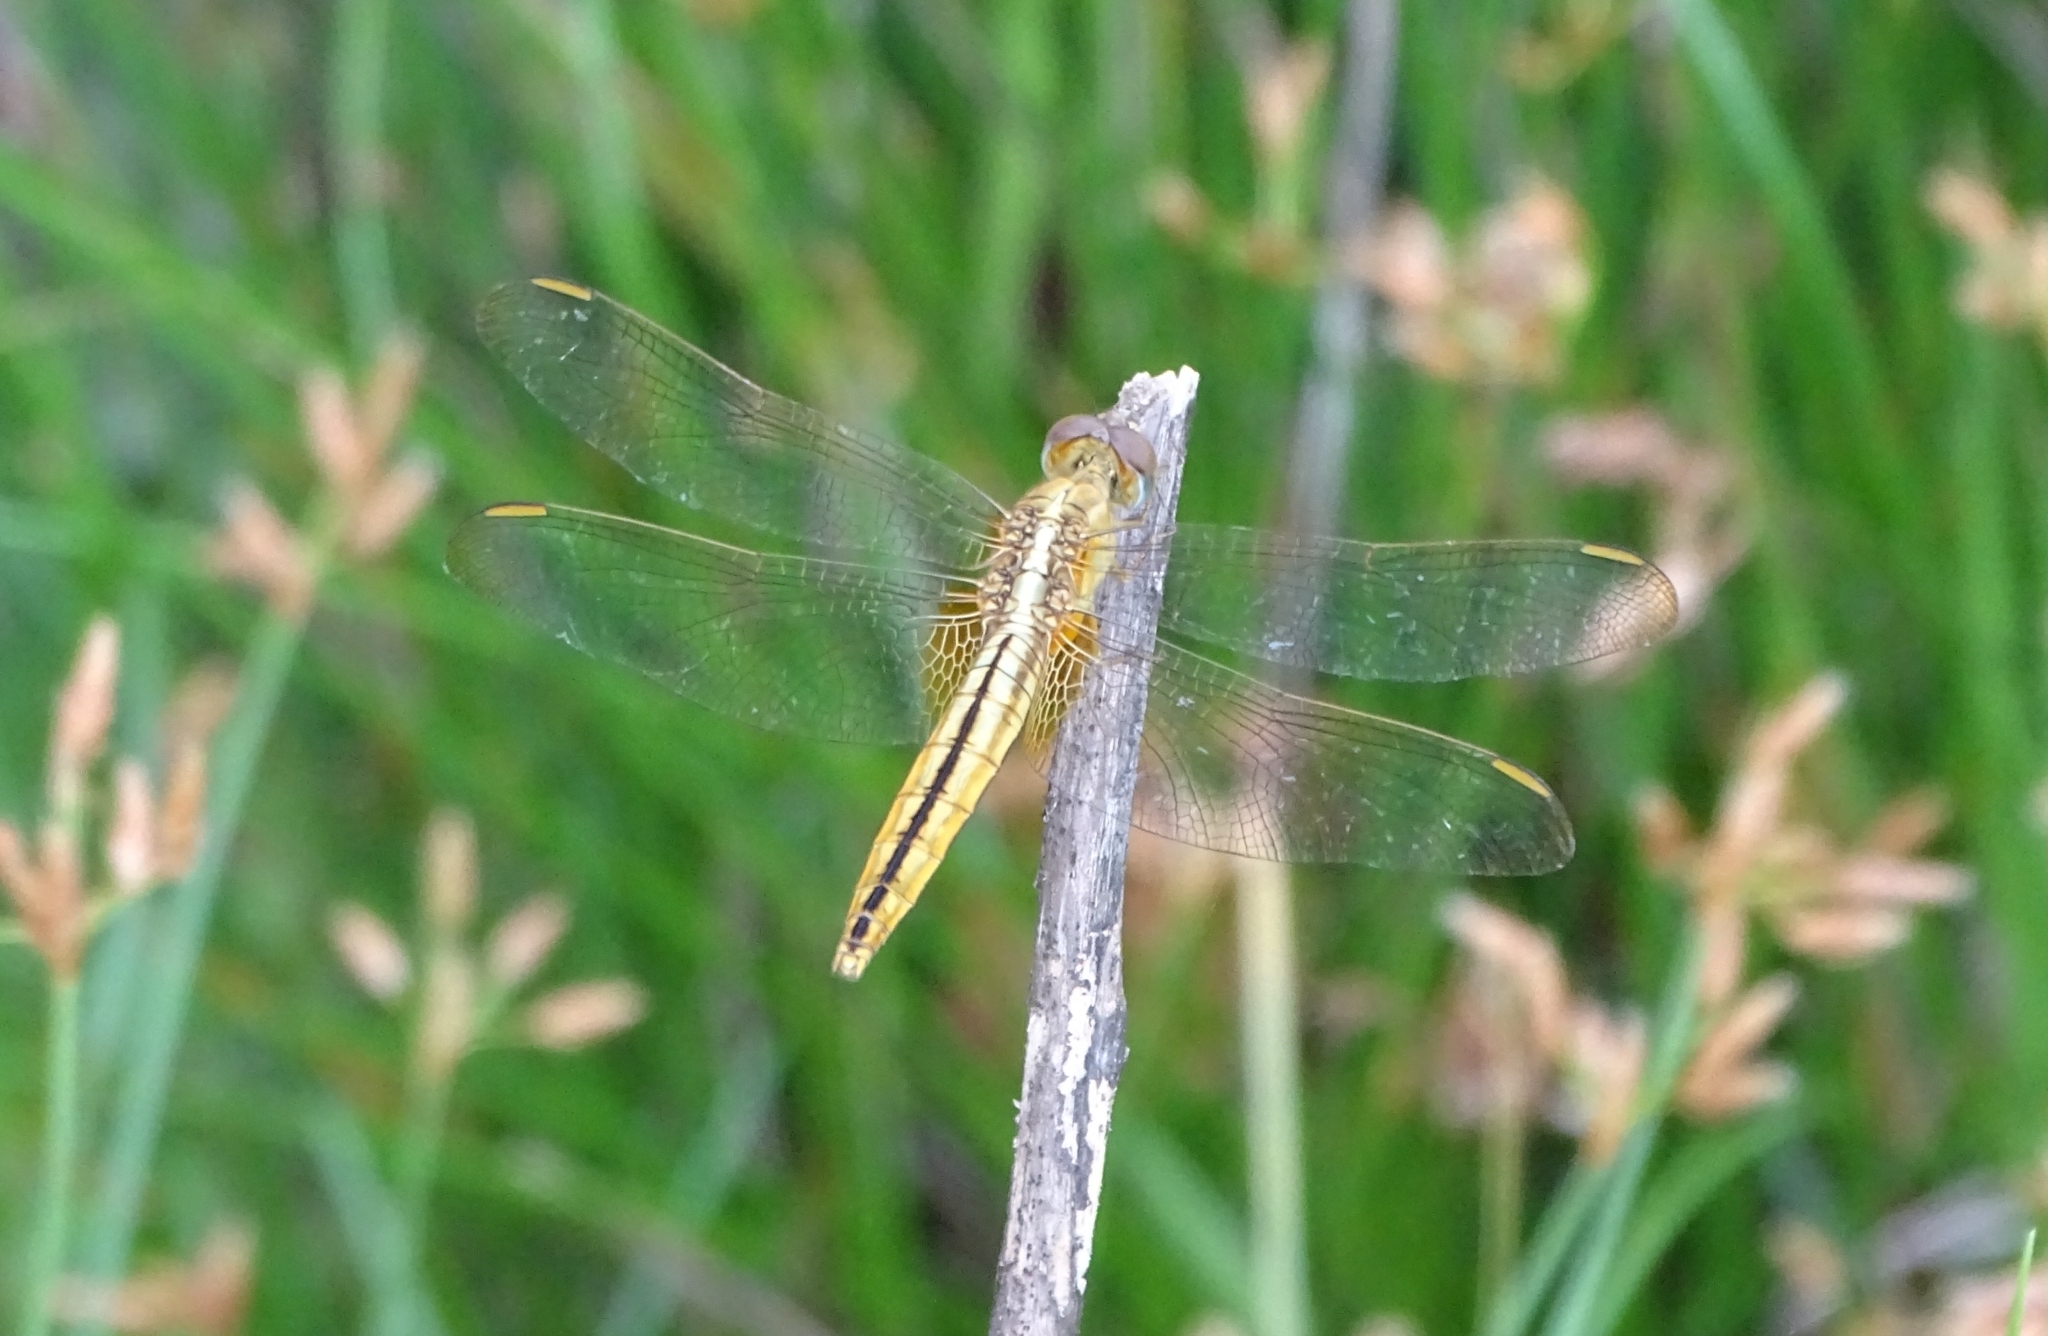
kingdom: Animalia
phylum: Arthropoda
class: Insecta
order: Odonata
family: Libellulidae
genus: Crocothemis
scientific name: Crocothemis servilia
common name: Scarlet skimmer
